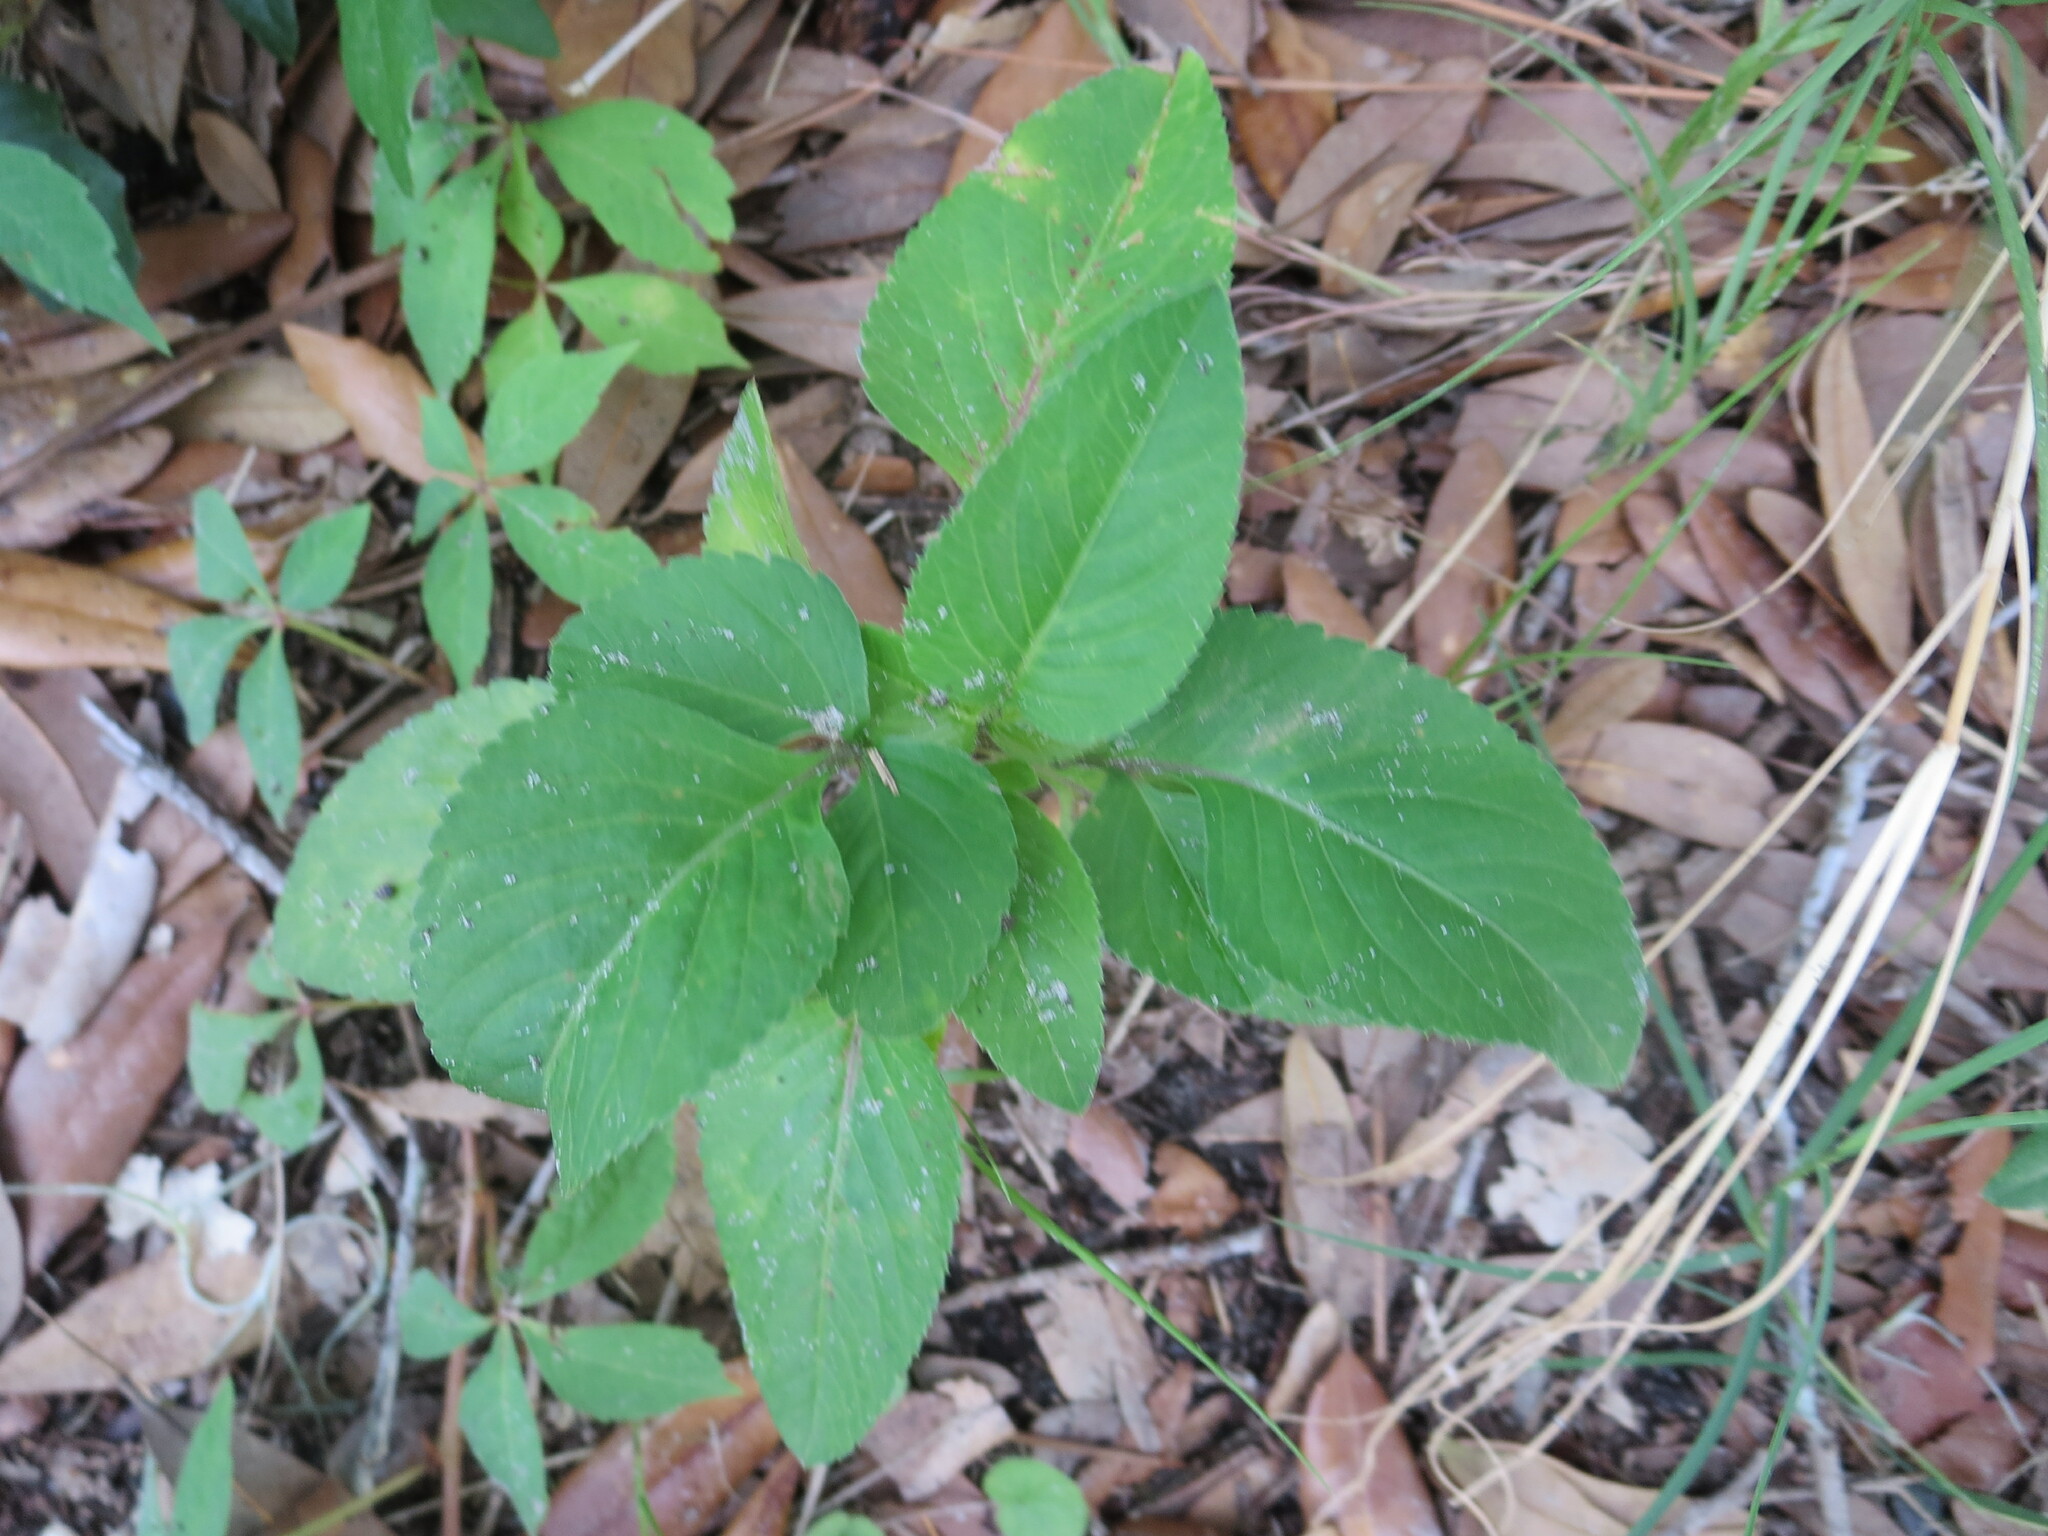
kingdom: Plantae
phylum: Tracheophyta
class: Magnoliopsida
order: Asterales
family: Asteraceae
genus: Bidens
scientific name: Bidens alba
